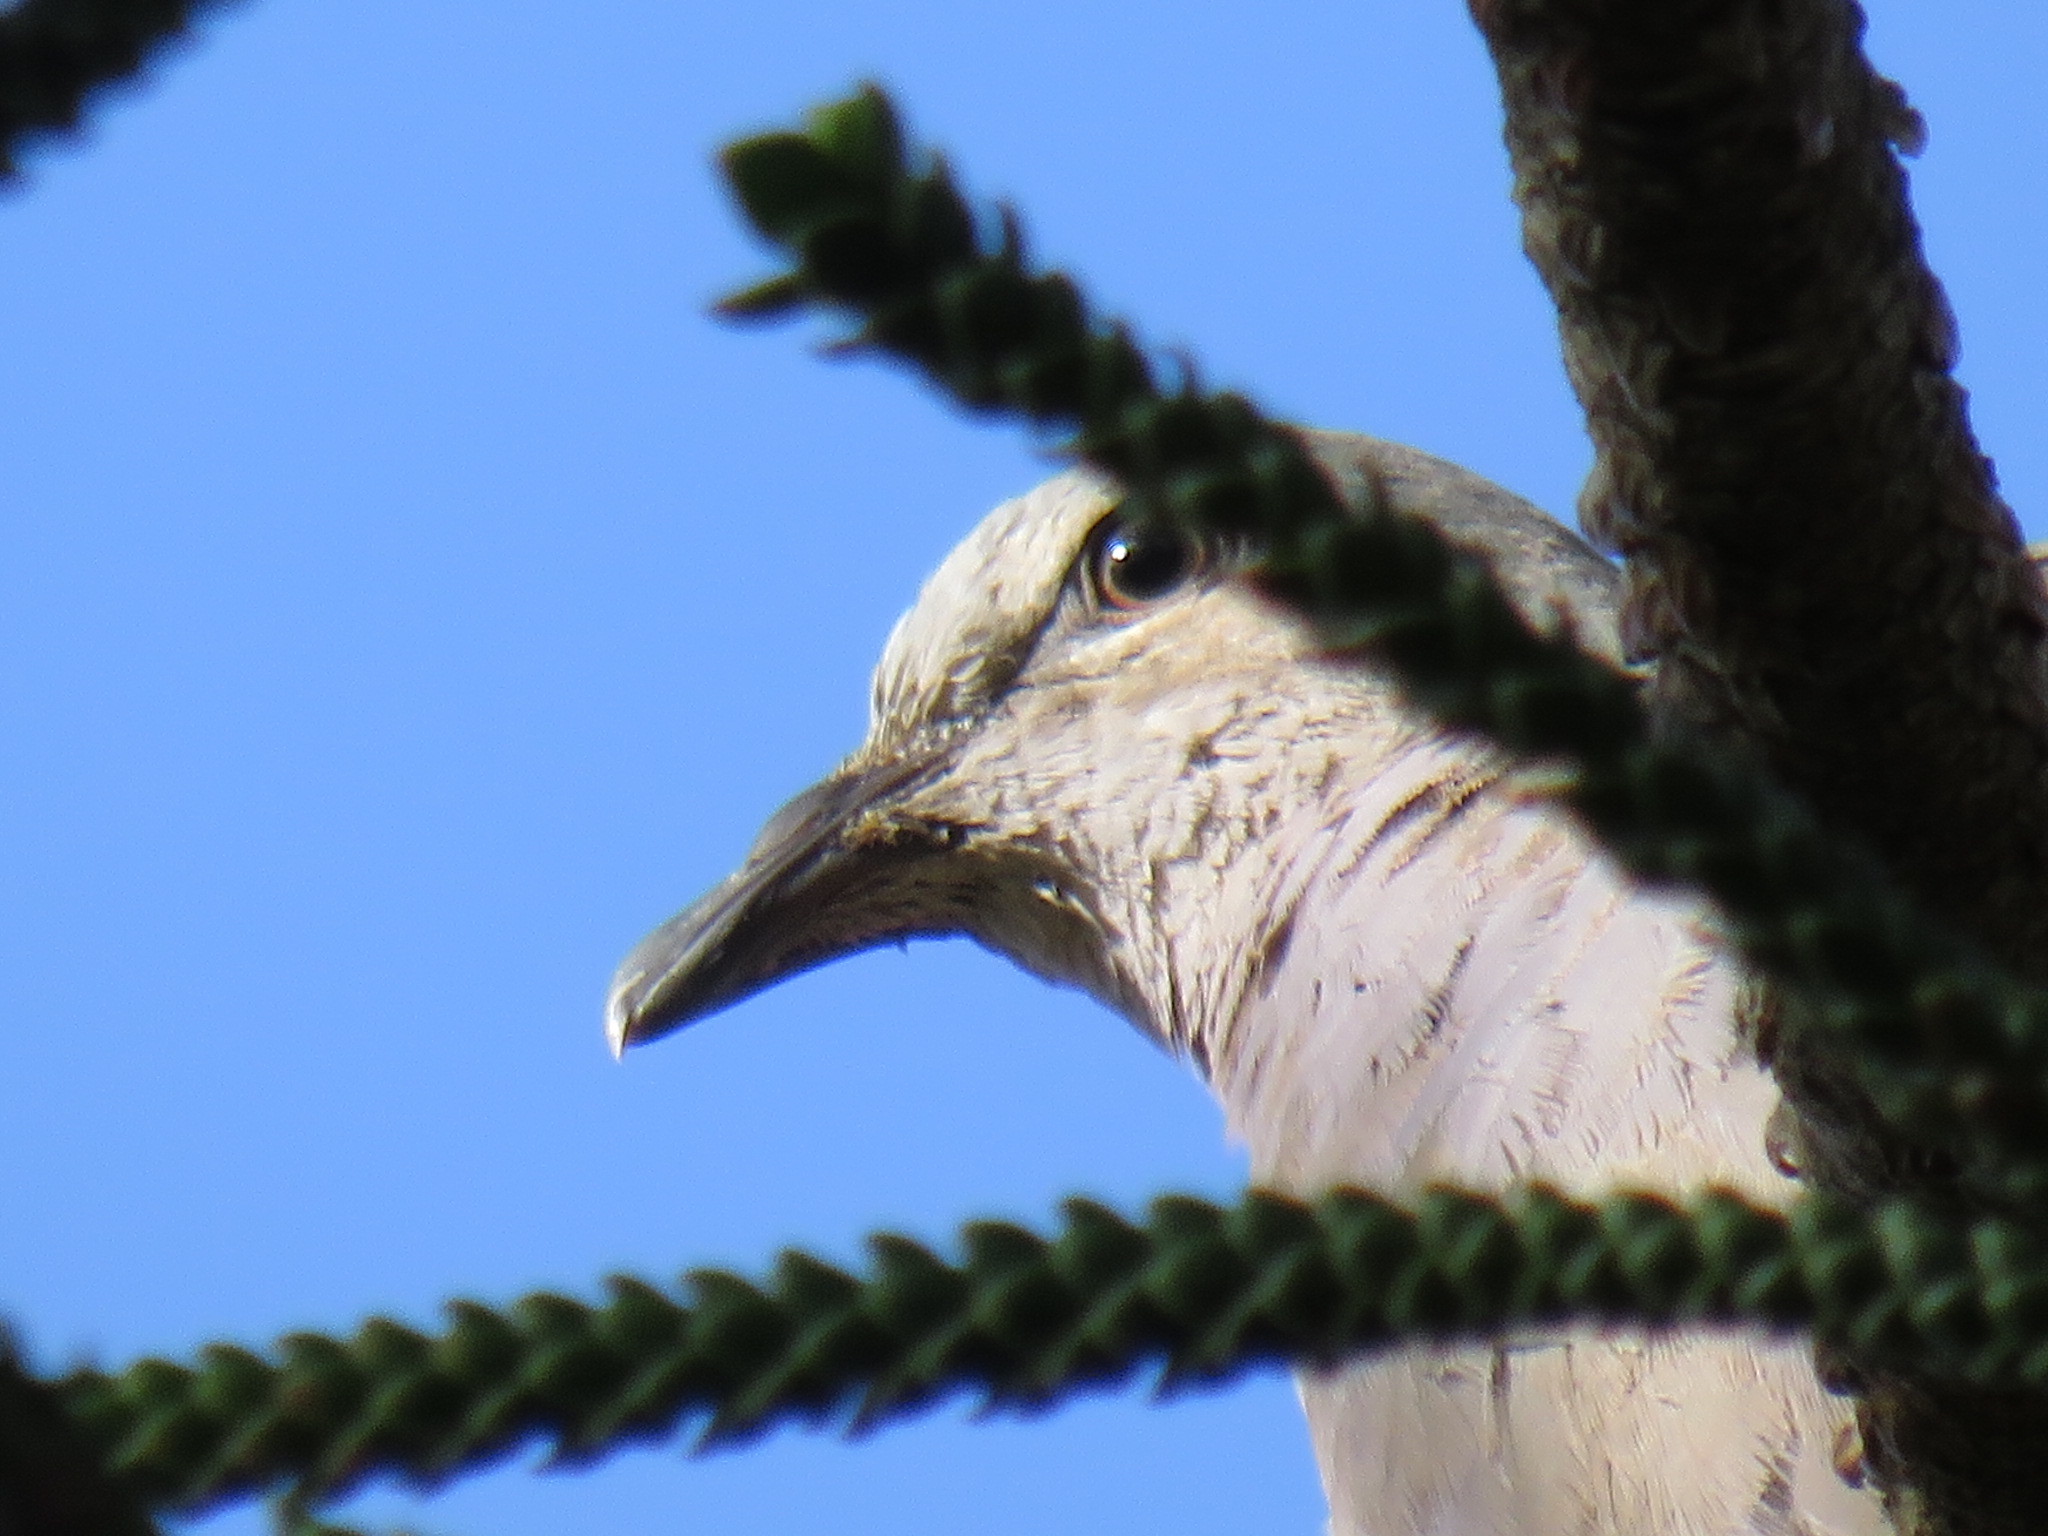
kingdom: Animalia
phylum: Chordata
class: Aves
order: Columbiformes
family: Columbidae
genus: Streptopelia
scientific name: Streptopelia semitorquata
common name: Red-eyed dove
